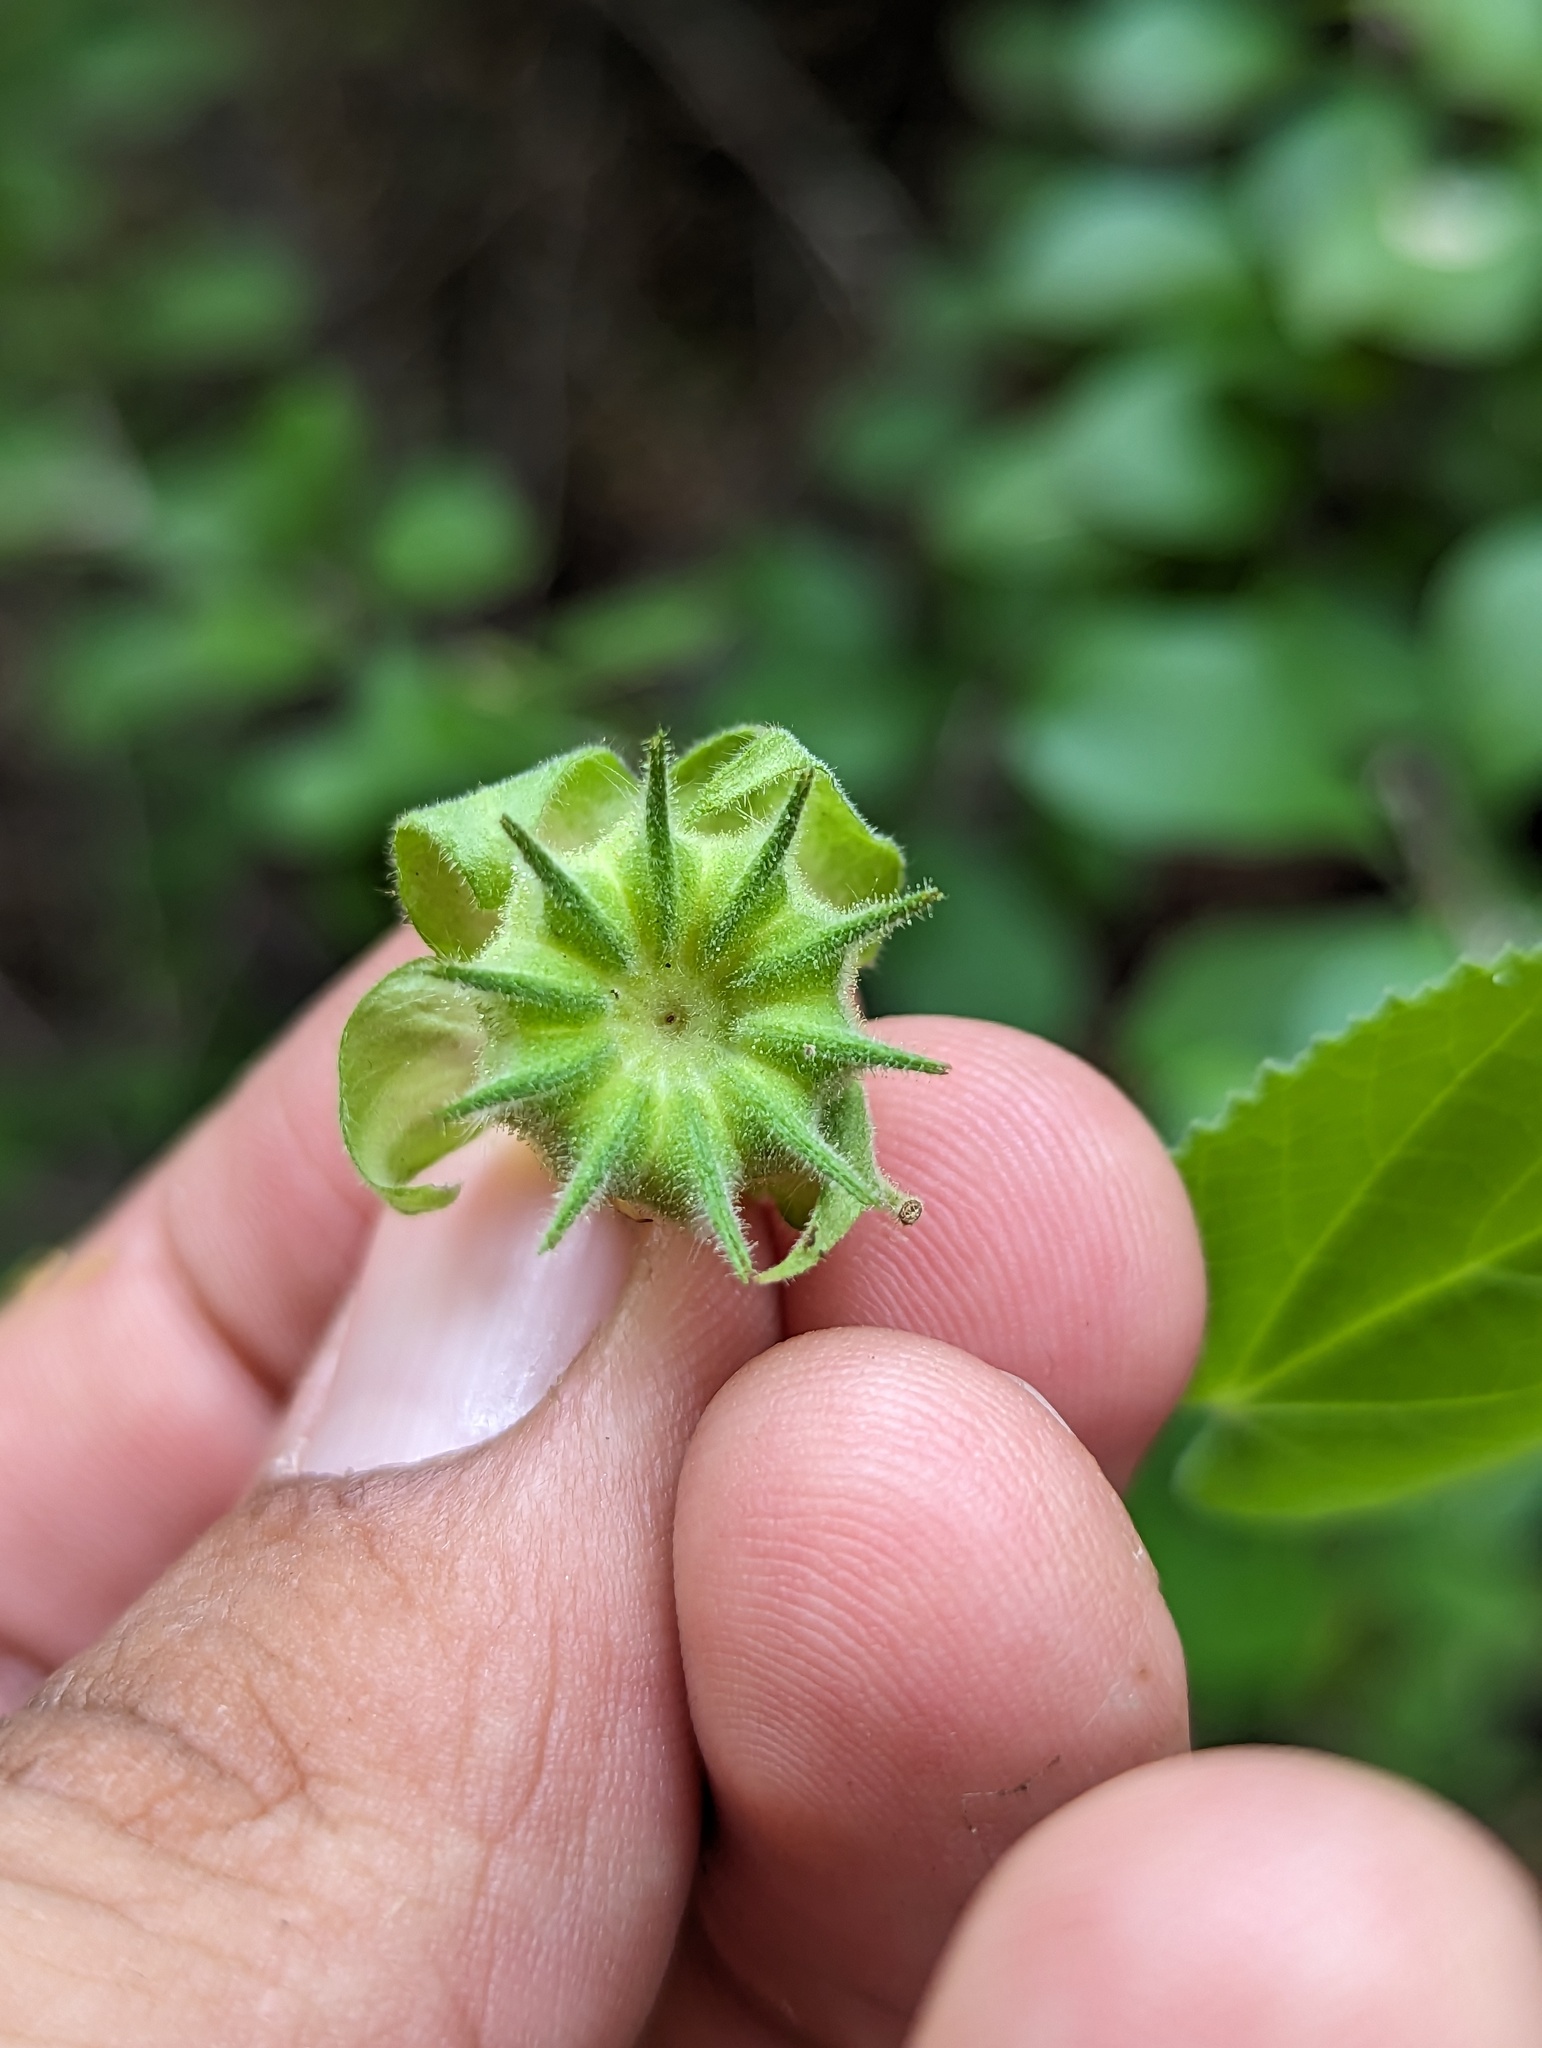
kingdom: Plantae
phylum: Tracheophyta
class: Magnoliopsida
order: Malvales
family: Malvaceae
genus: Abutilon
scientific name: Abutilon dugesii
